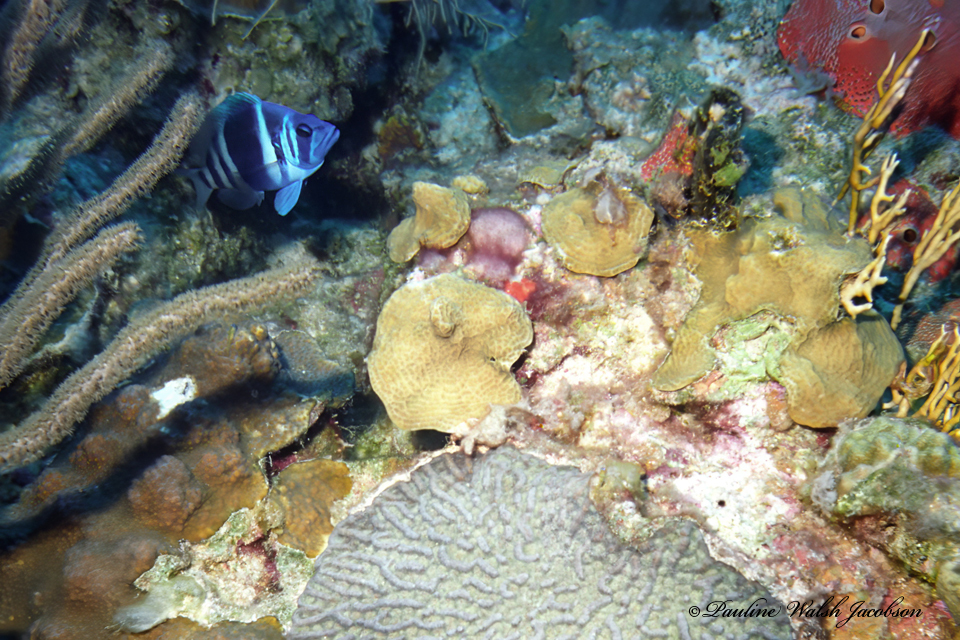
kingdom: Animalia
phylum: Chordata
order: Perciformes
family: Serranidae
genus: Hypoplectrus
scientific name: Hypoplectrus indigo
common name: Indigo hamlet
